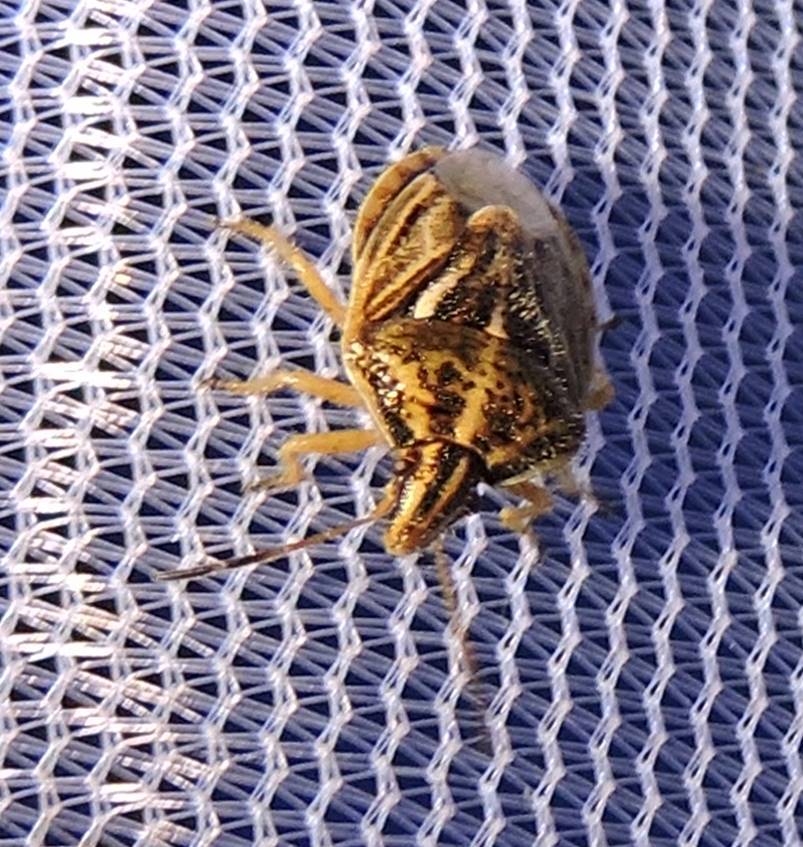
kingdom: Animalia
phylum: Arthropoda
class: Insecta
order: Hemiptera
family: Pentatomidae
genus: Trichopepla
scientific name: Trichopepla semivittata
